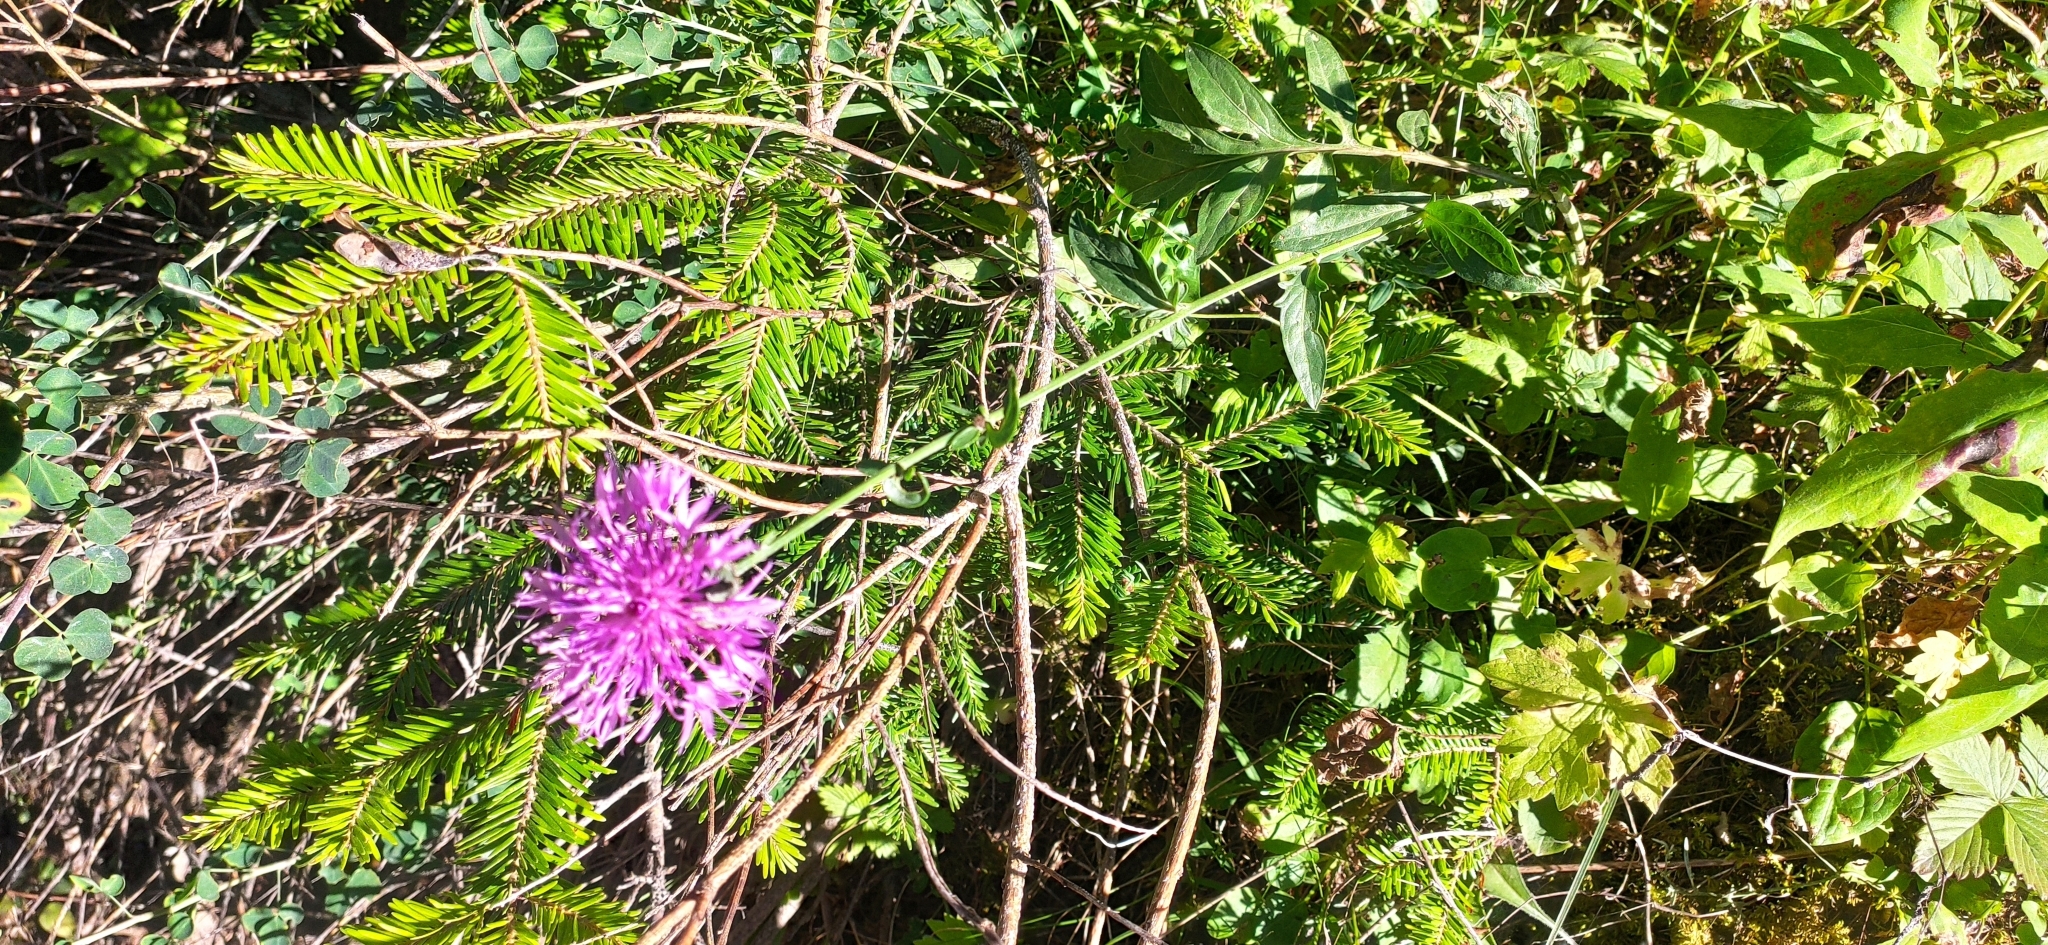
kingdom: Plantae
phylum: Tracheophyta
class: Magnoliopsida
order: Asterales
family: Asteraceae
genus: Centaurea
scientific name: Centaurea scabiosa
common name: Greater knapweed
